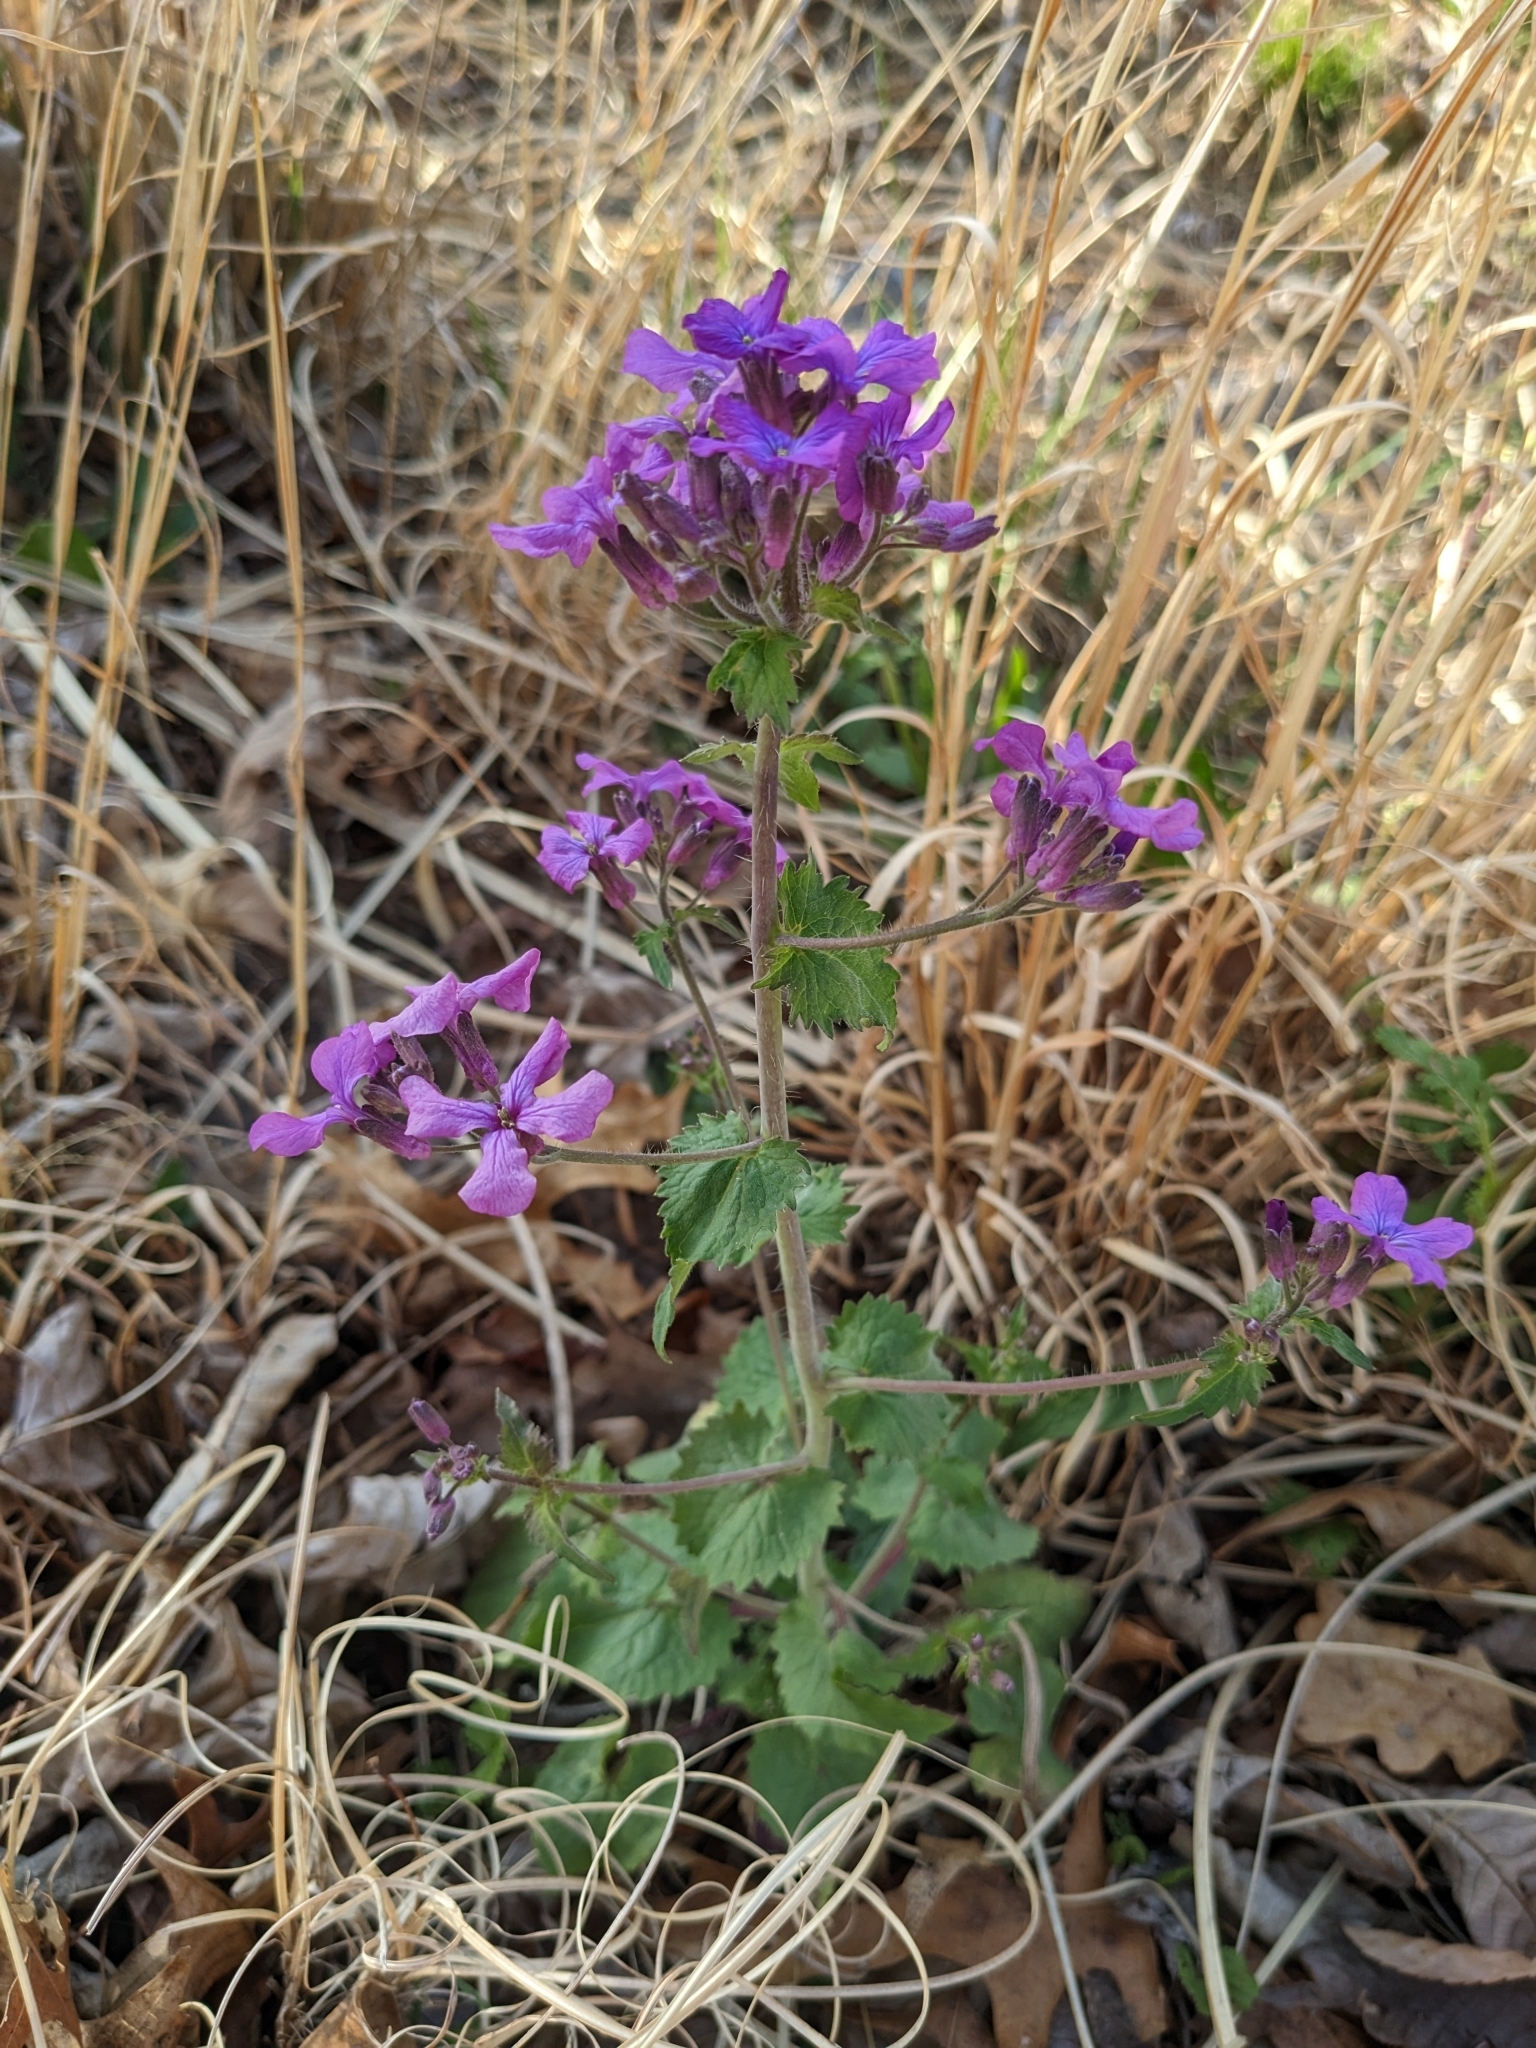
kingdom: Plantae
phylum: Tracheophyta
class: Magnoliopsida
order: Brassicales
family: Brassicaceae
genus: Lunaria
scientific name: Lunaria annua
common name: Honesty
